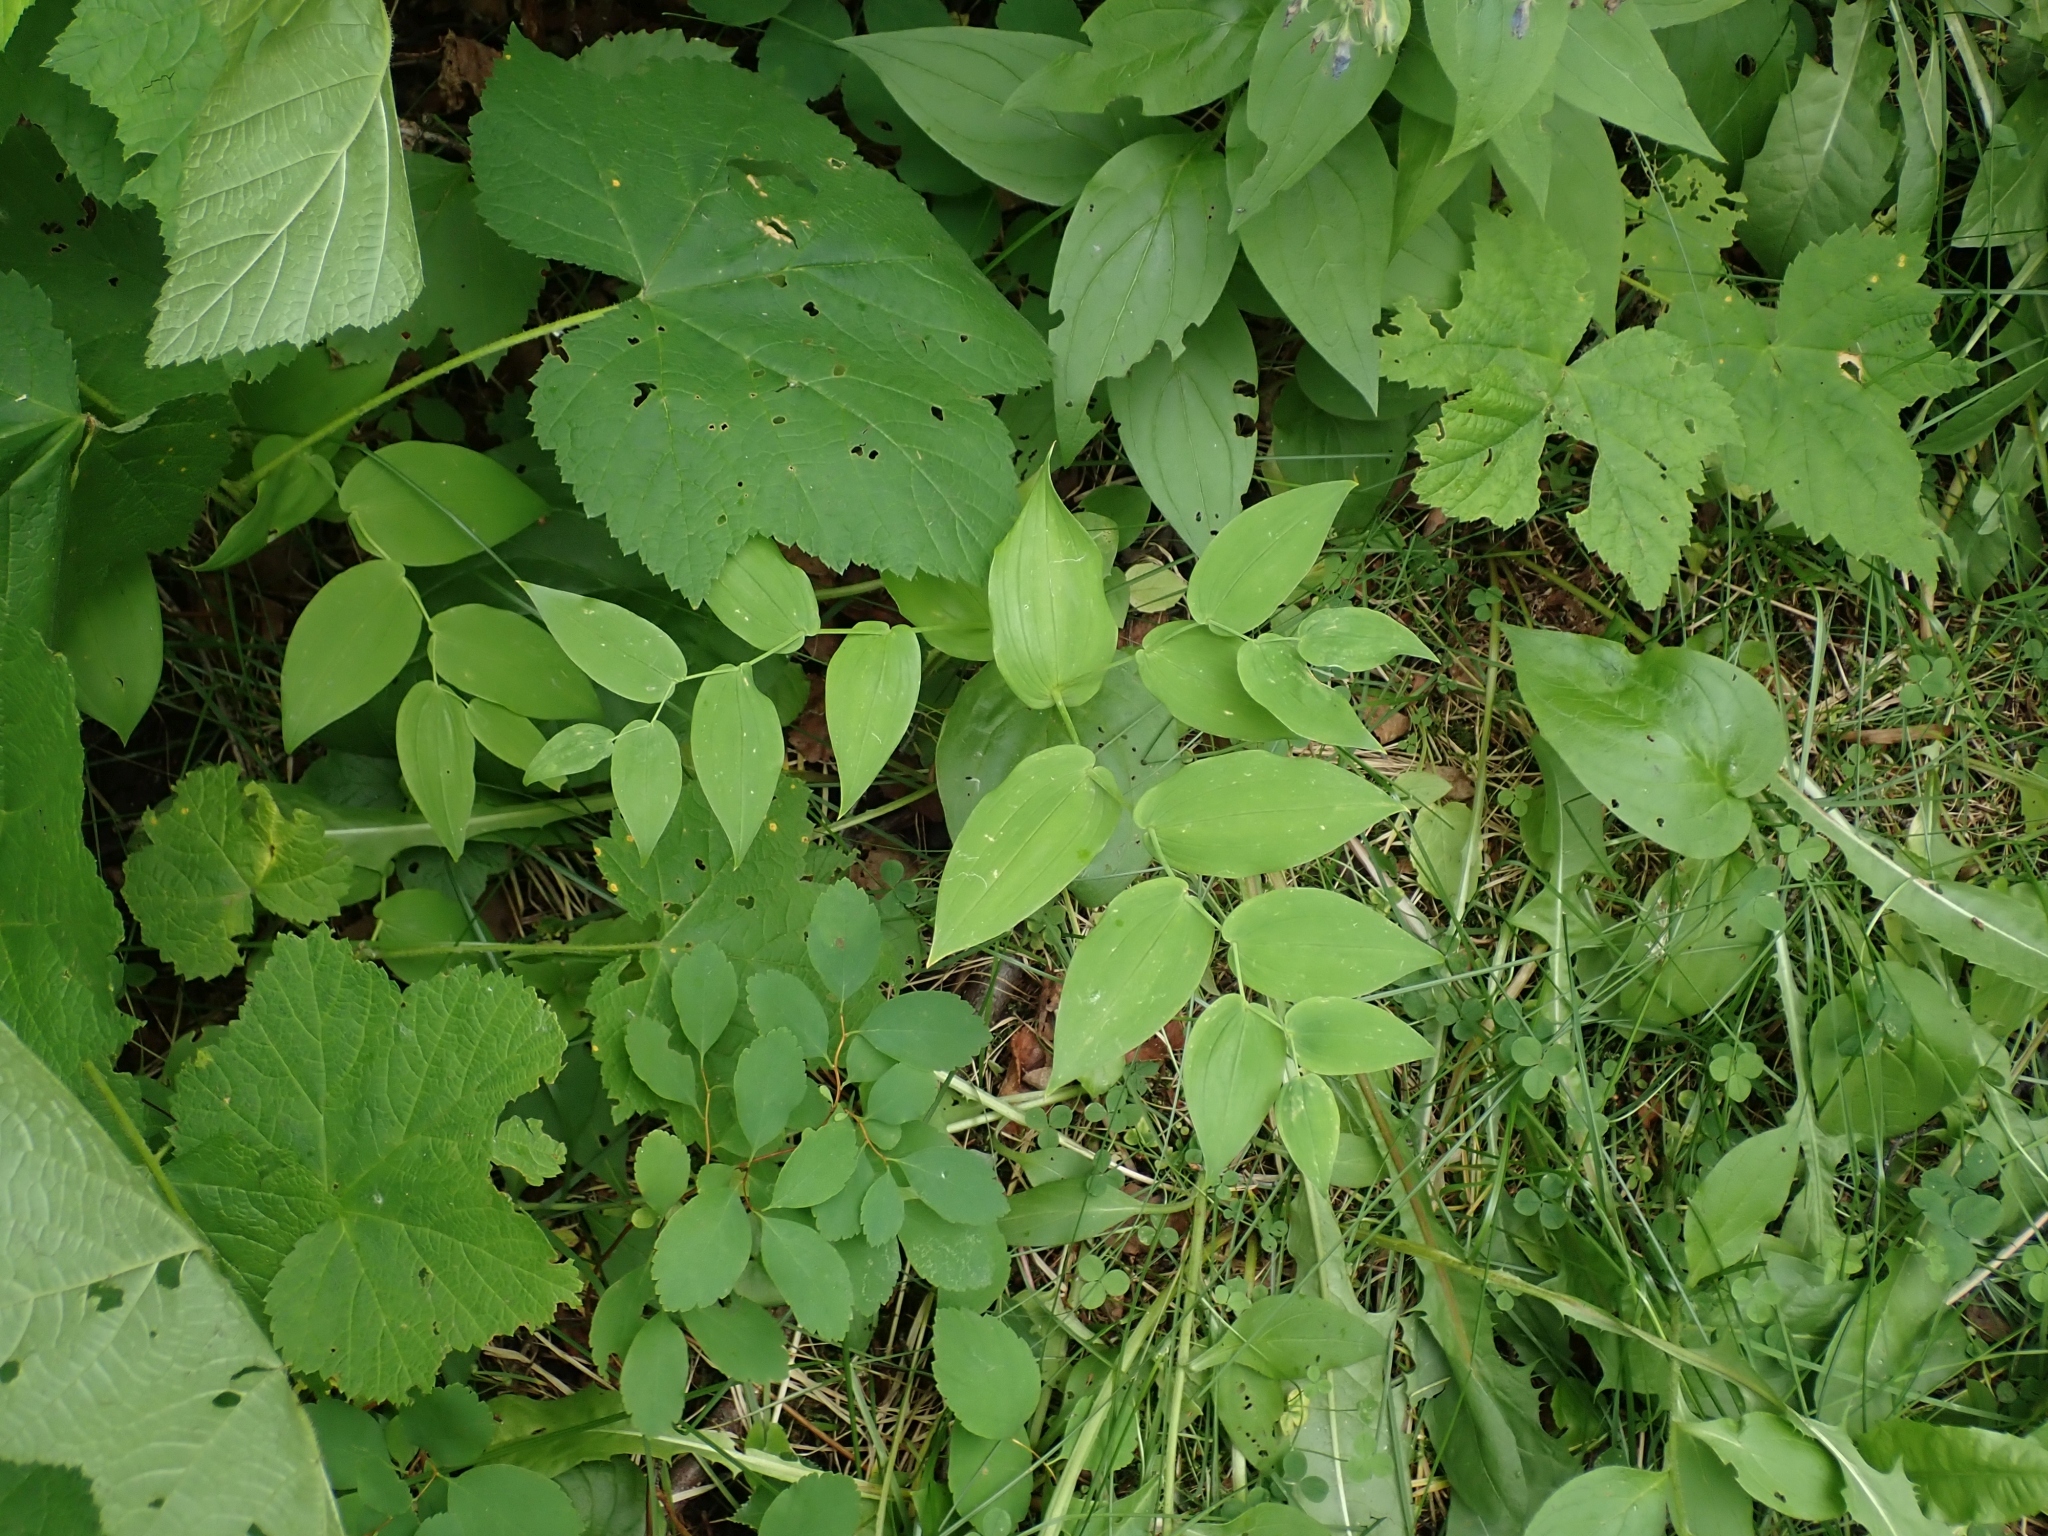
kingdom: Plantae
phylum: Tracheophyta
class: Liliopsida
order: Liliales
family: Liliaceae
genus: Streptopus
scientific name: Streptopus amplexifolius
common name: Clasp twisted stalk
